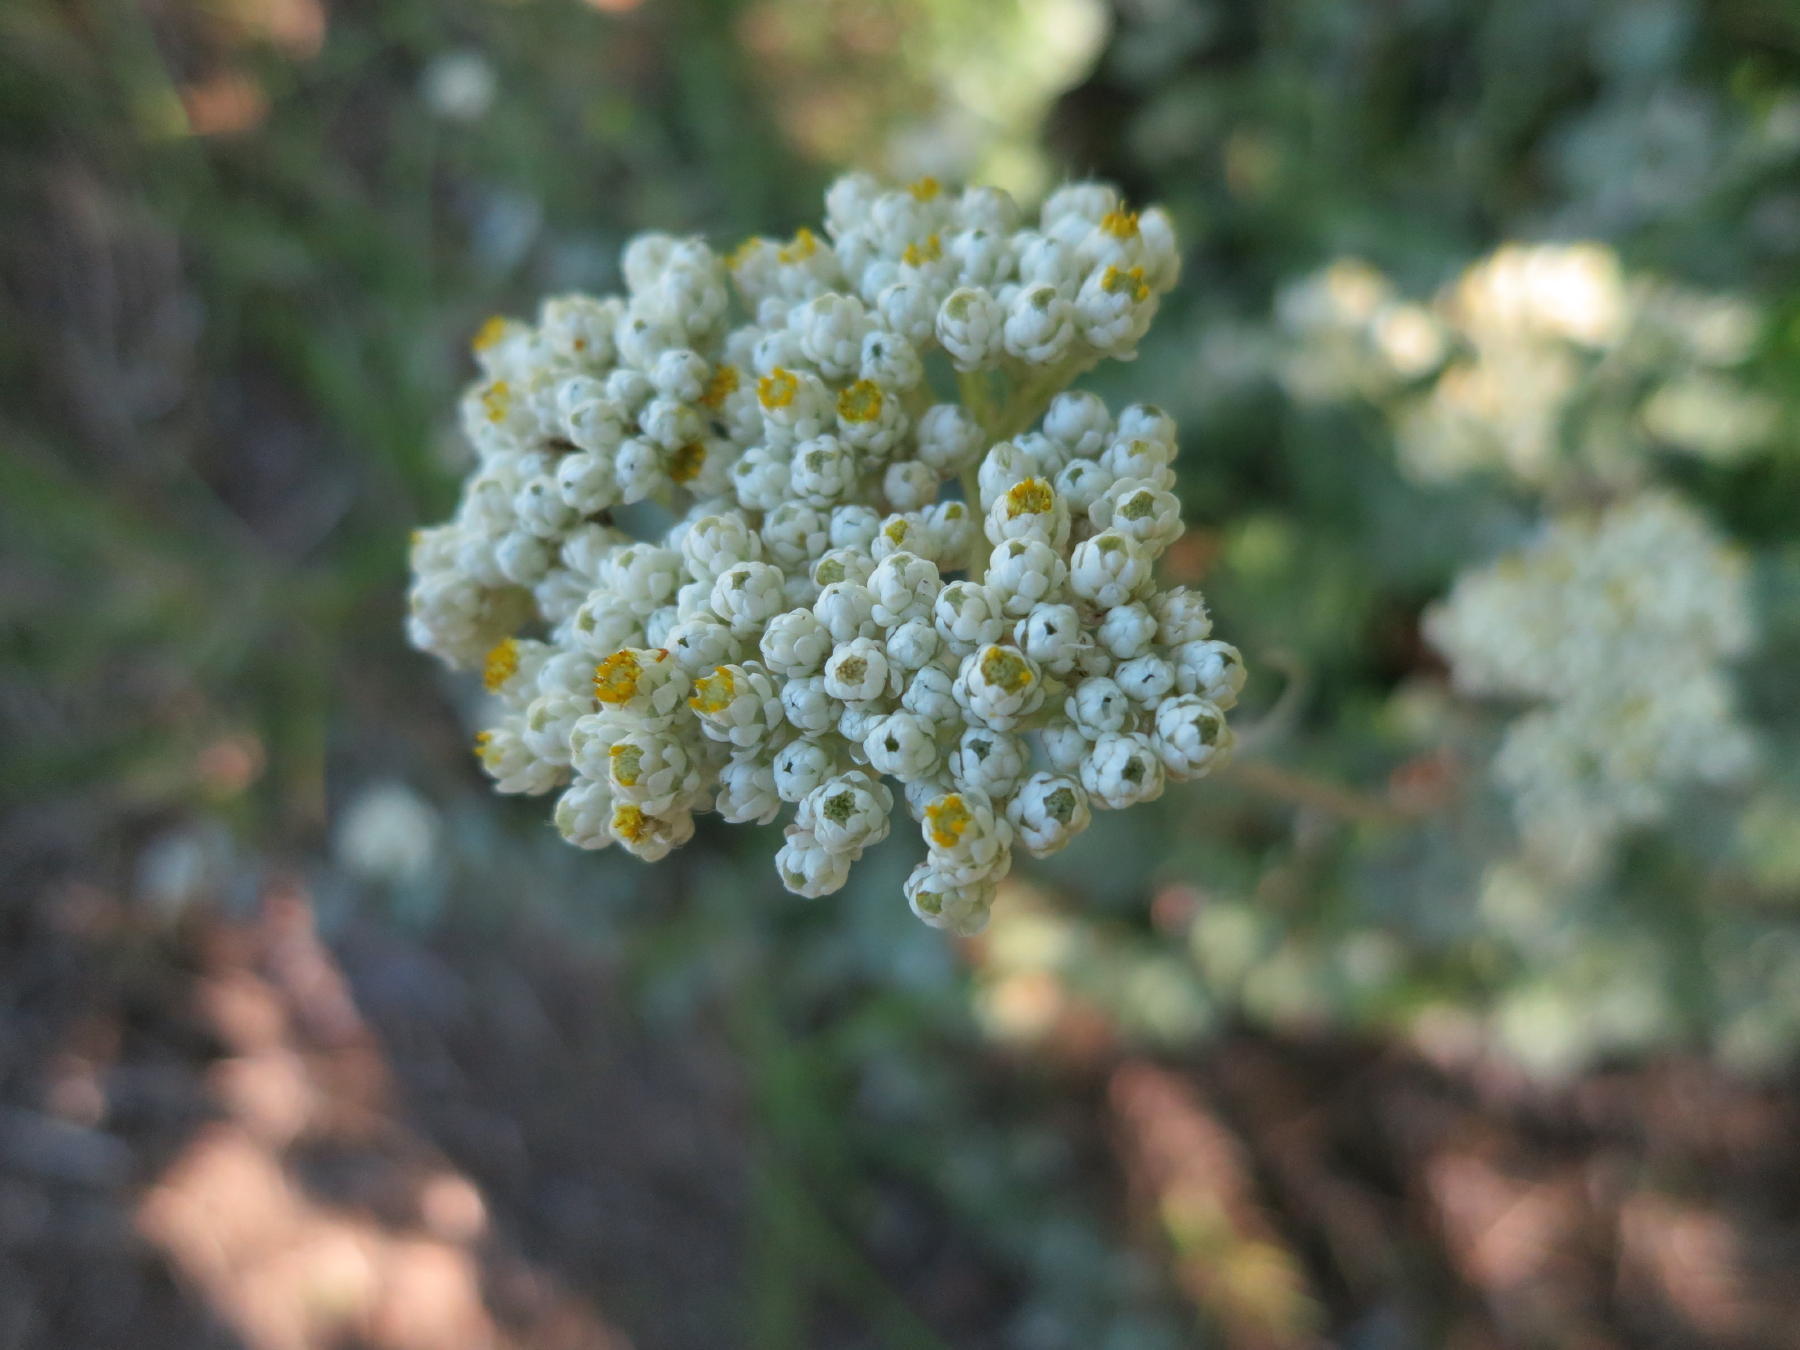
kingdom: Plantae
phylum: Tracheophyta
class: Magnoliopsida
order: Asterales
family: Asteraceae
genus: Helichrysum
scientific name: Helichrysum petiolare
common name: Licorice-plant
